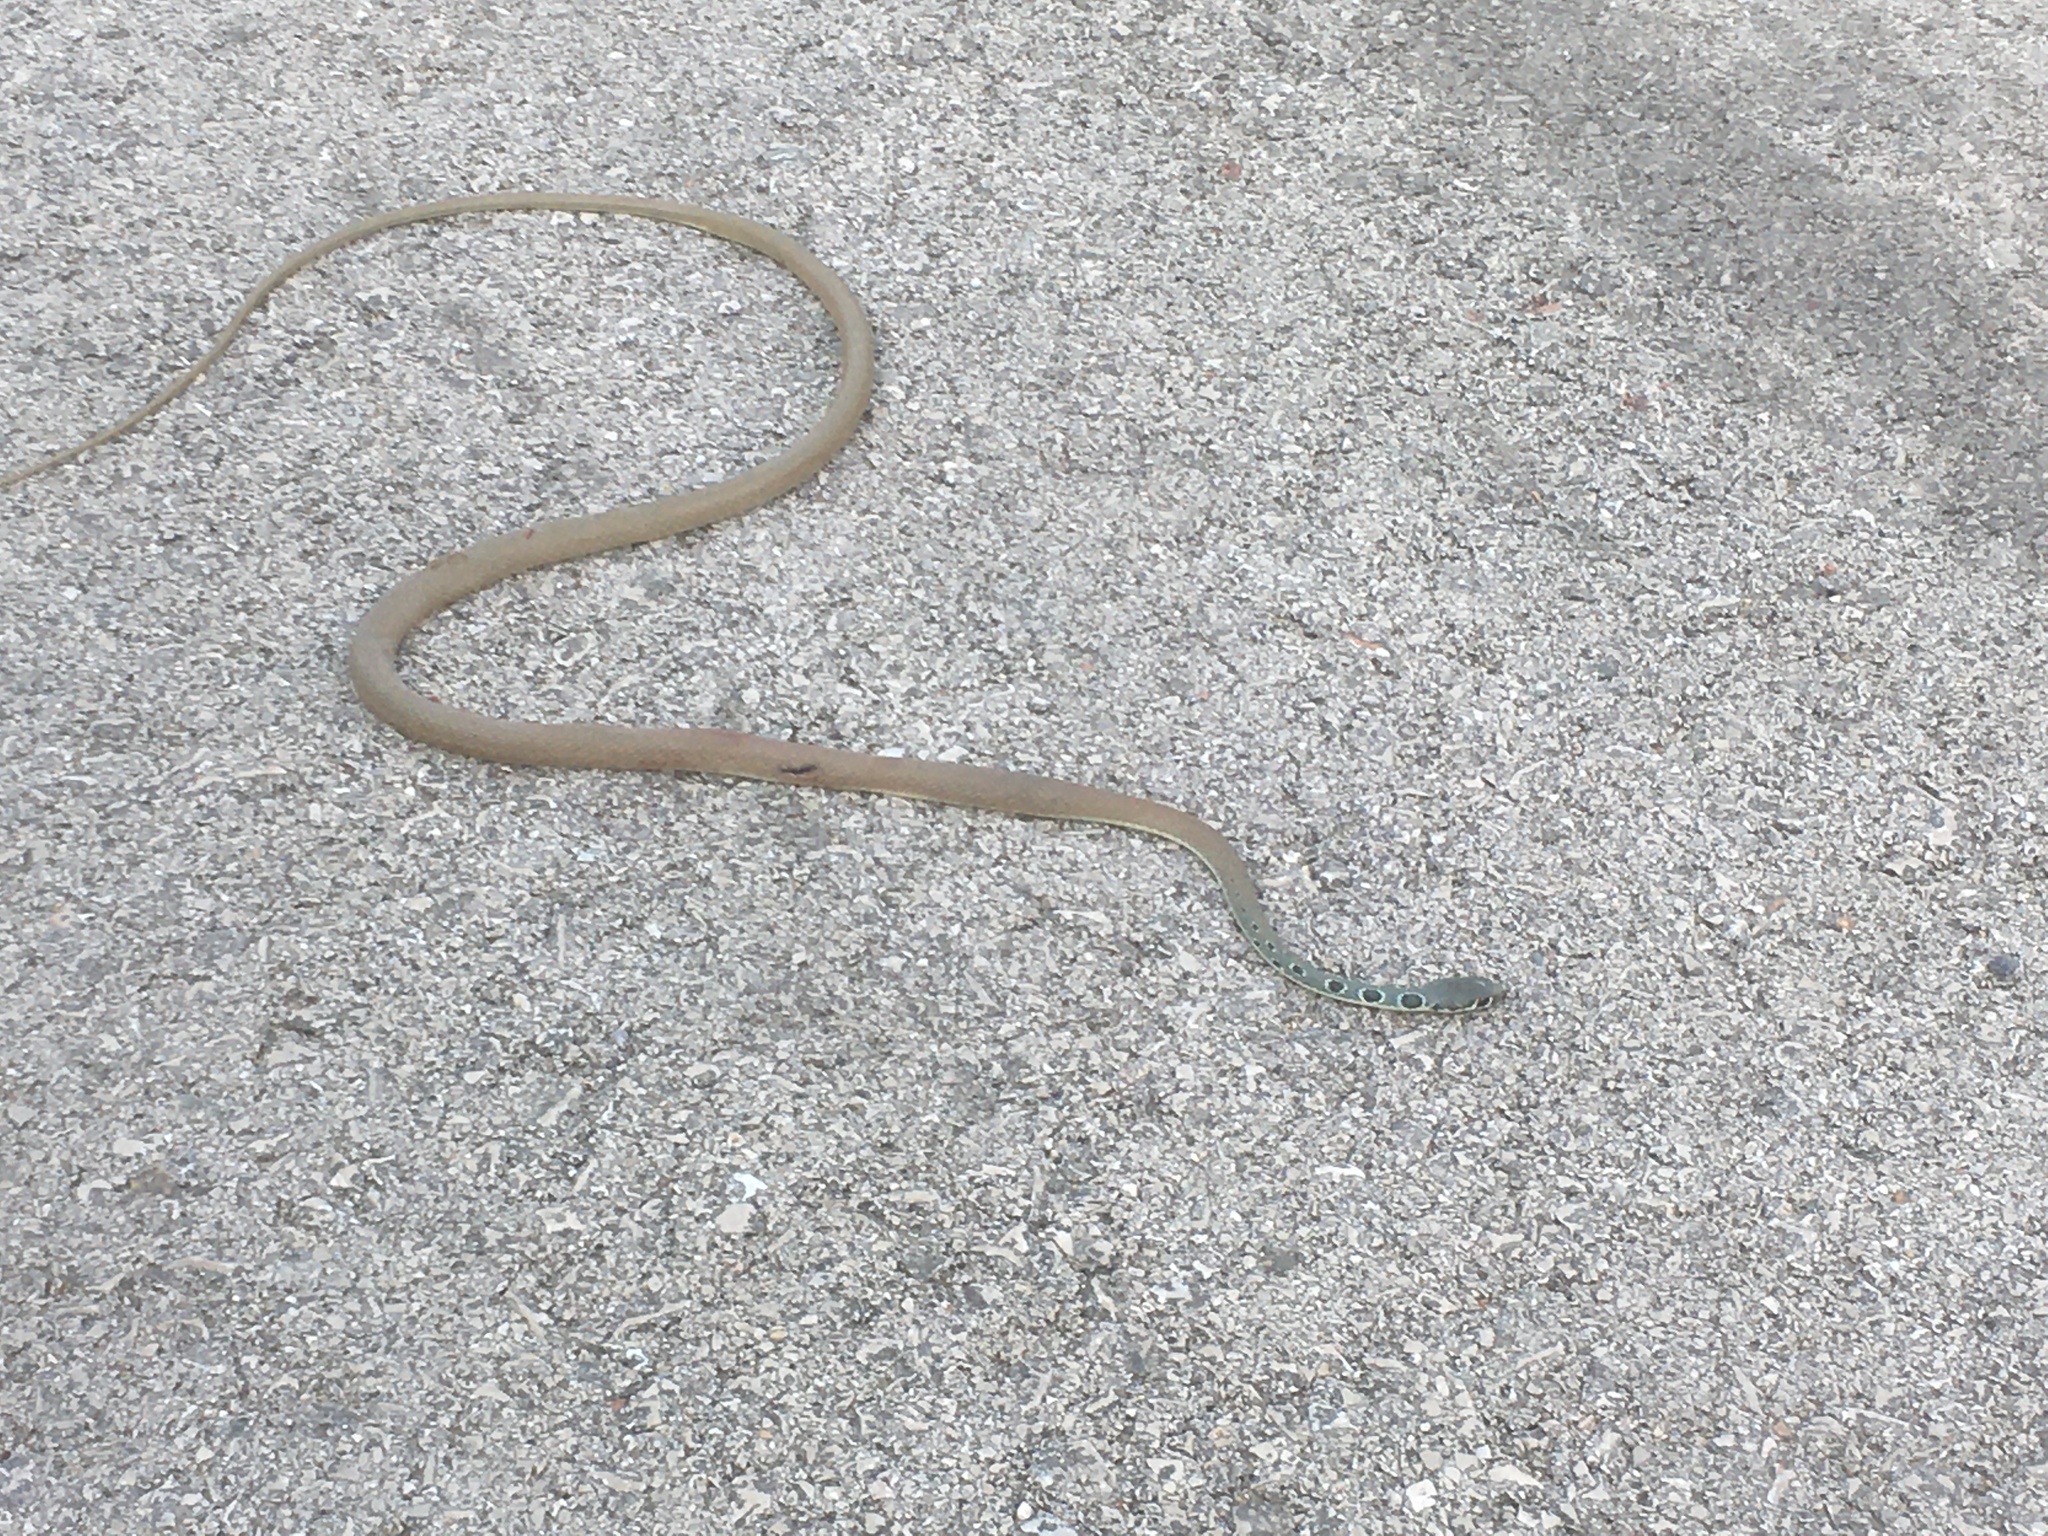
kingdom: Animalia
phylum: Chordata
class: Squamata
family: Colubridae
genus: Platyceps
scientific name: Platyceps najadum
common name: Dahl's whip snake
